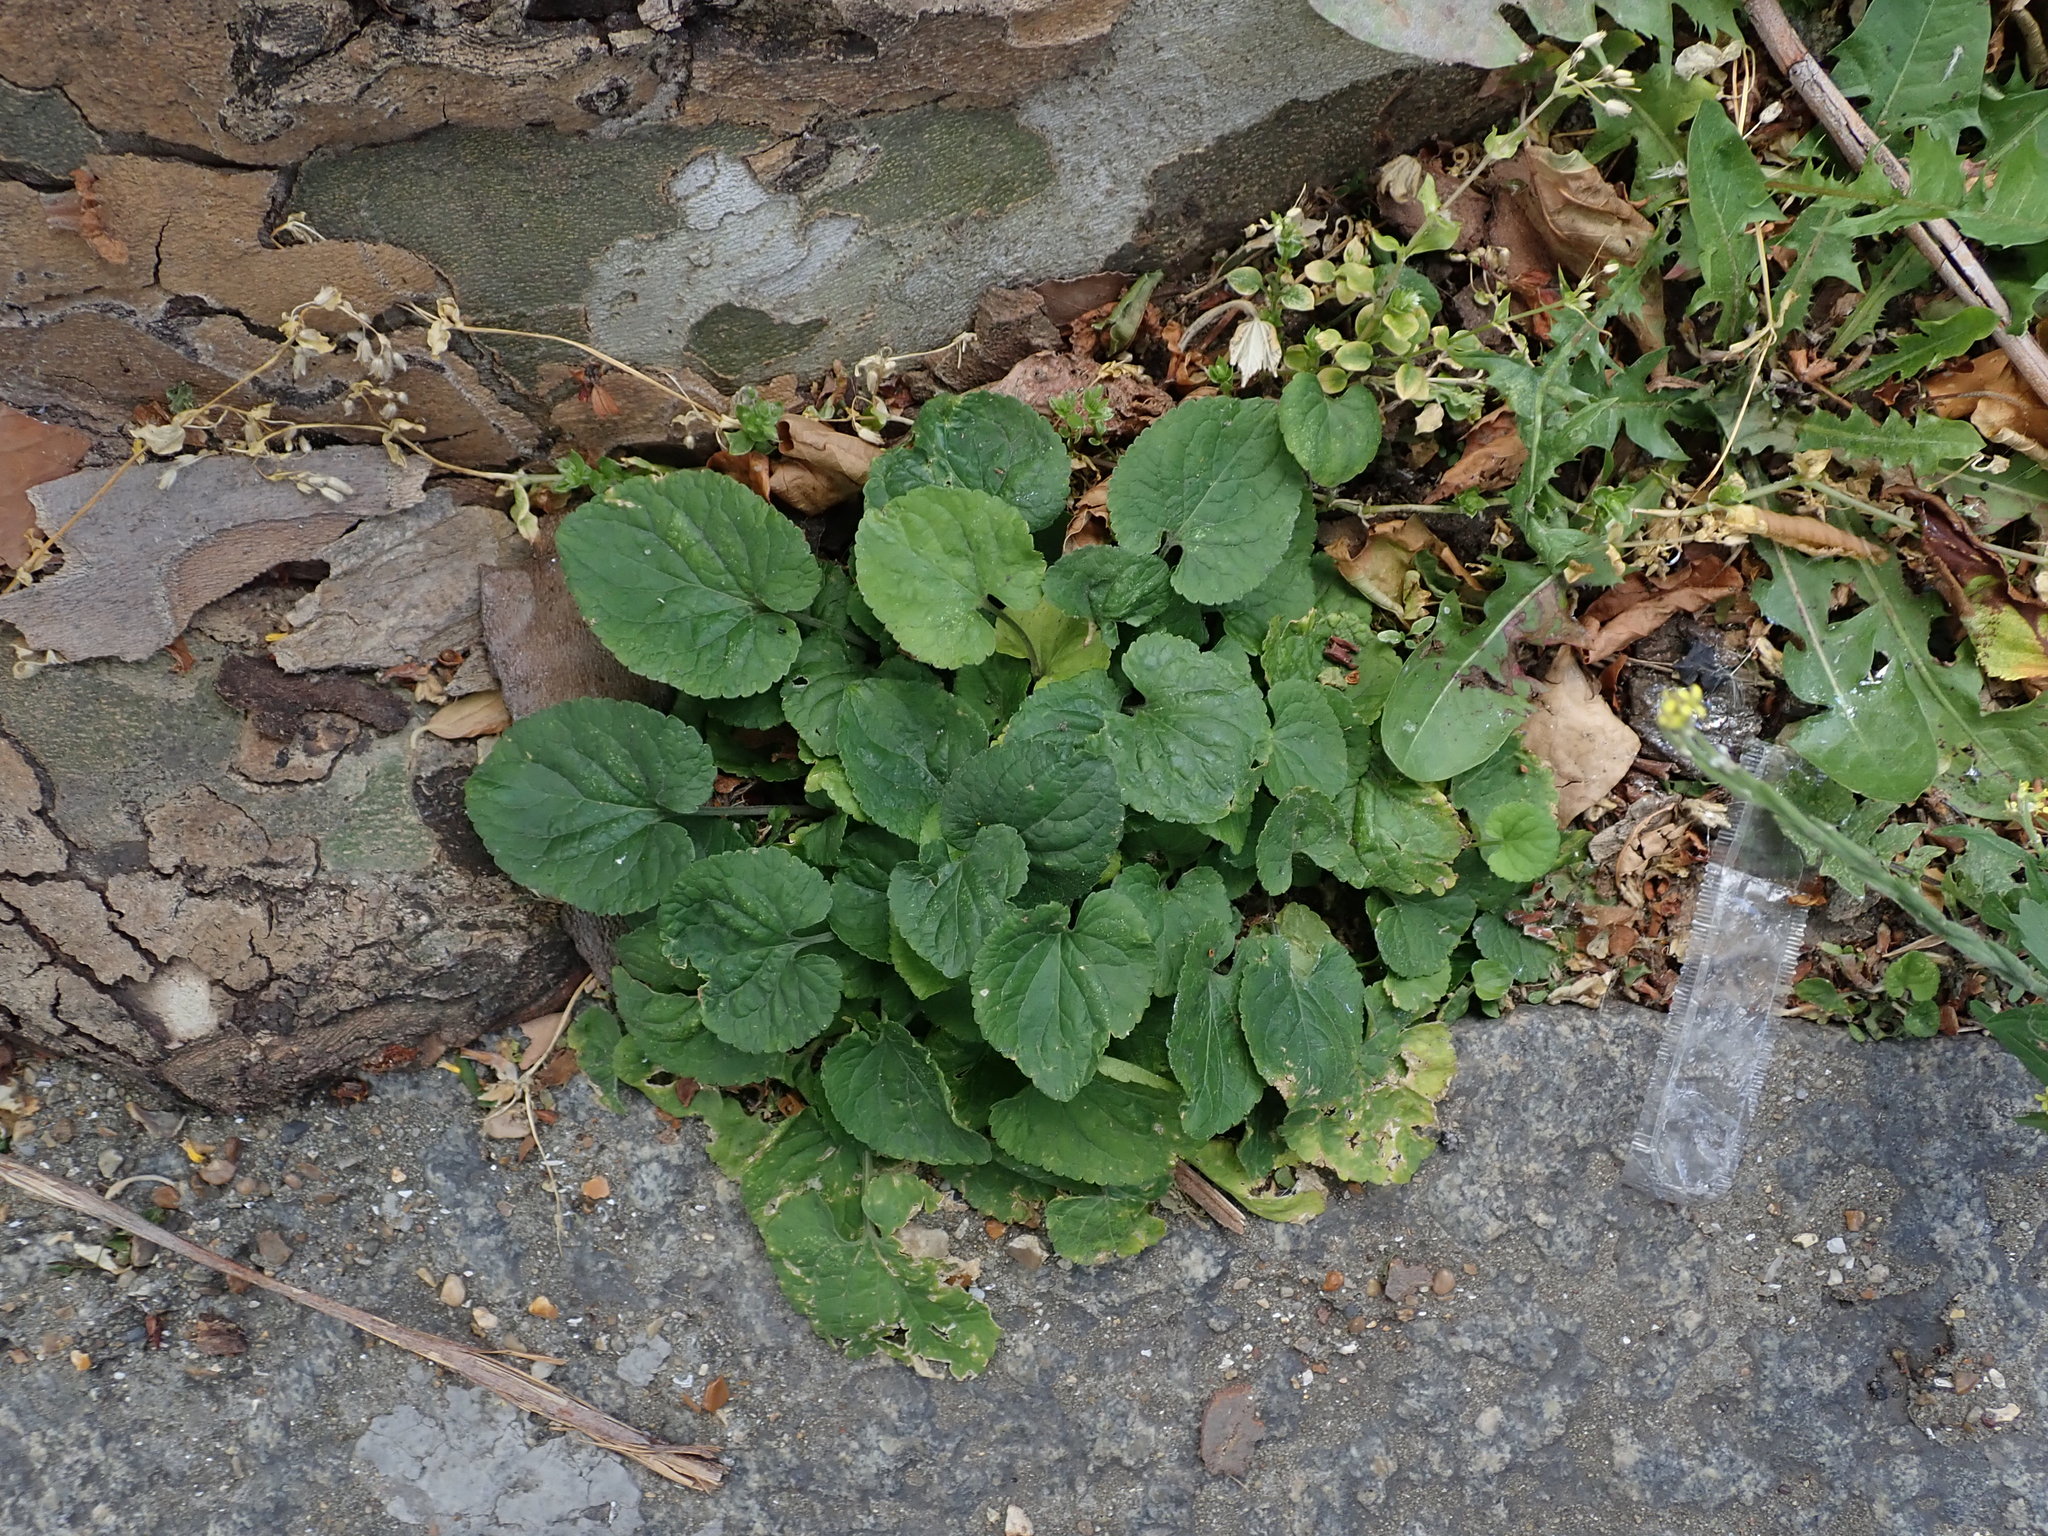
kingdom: Plantae
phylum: Tracheophyta
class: Magnoliopsida
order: Malpighiales
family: Violaceae
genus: Viola
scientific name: Viola odorata
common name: Sweet violet
